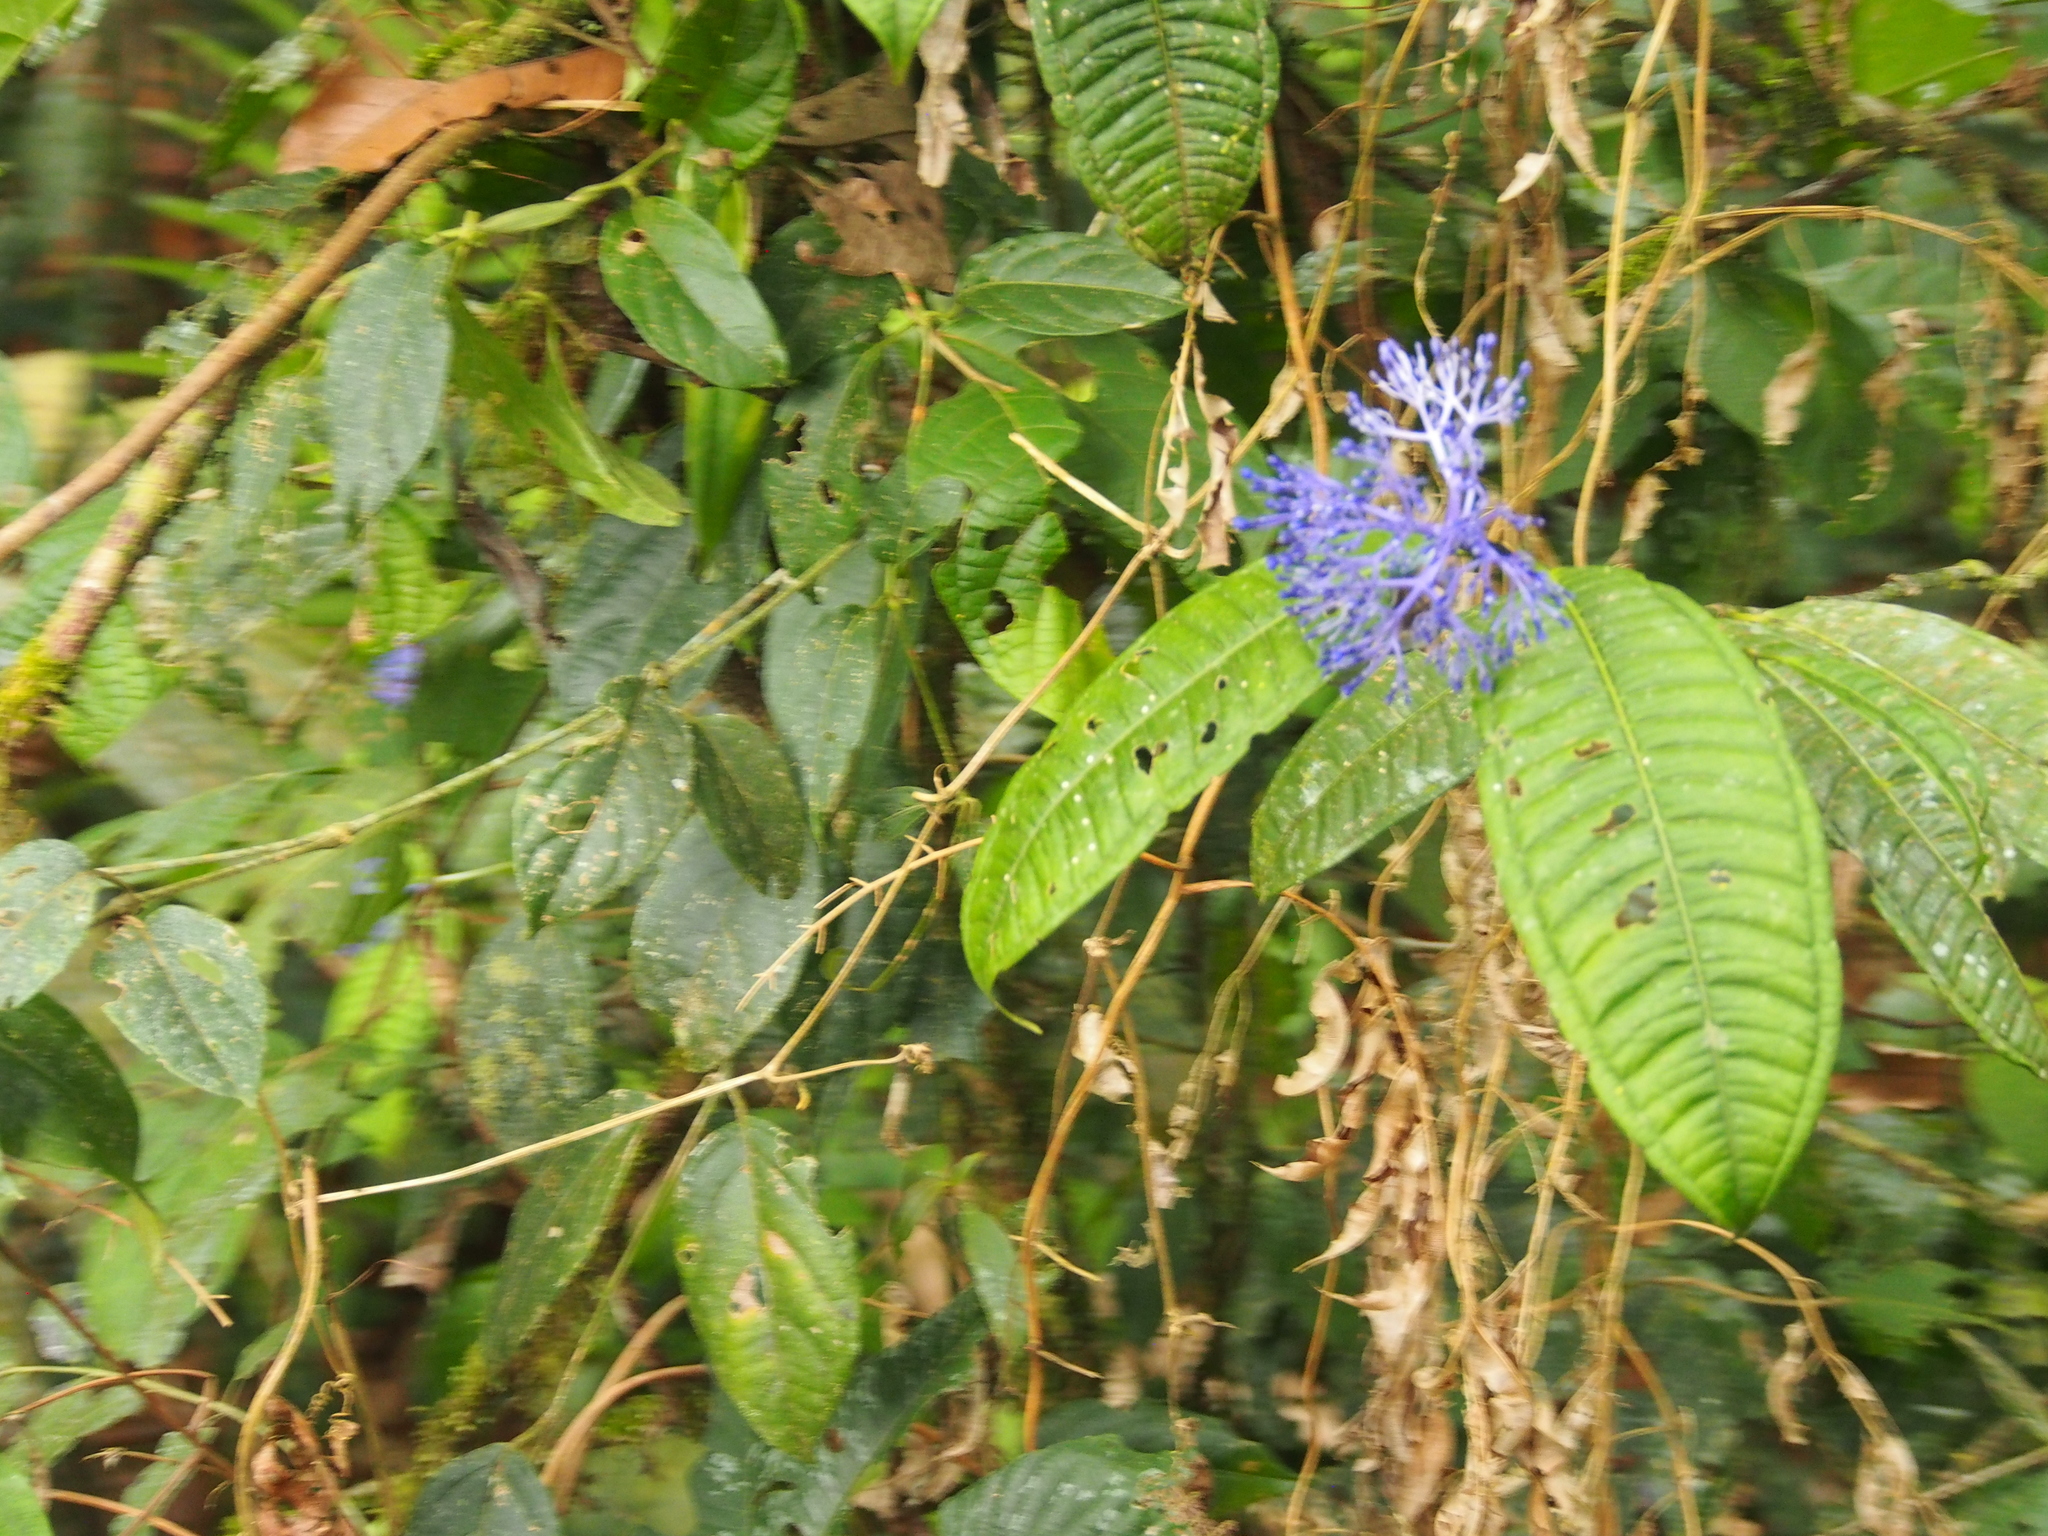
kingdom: Plantae
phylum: Tracheophyta
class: Magnoliopsida
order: Gentianales
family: Rubiaceae
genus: Faramea
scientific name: Faramea suerrensis
